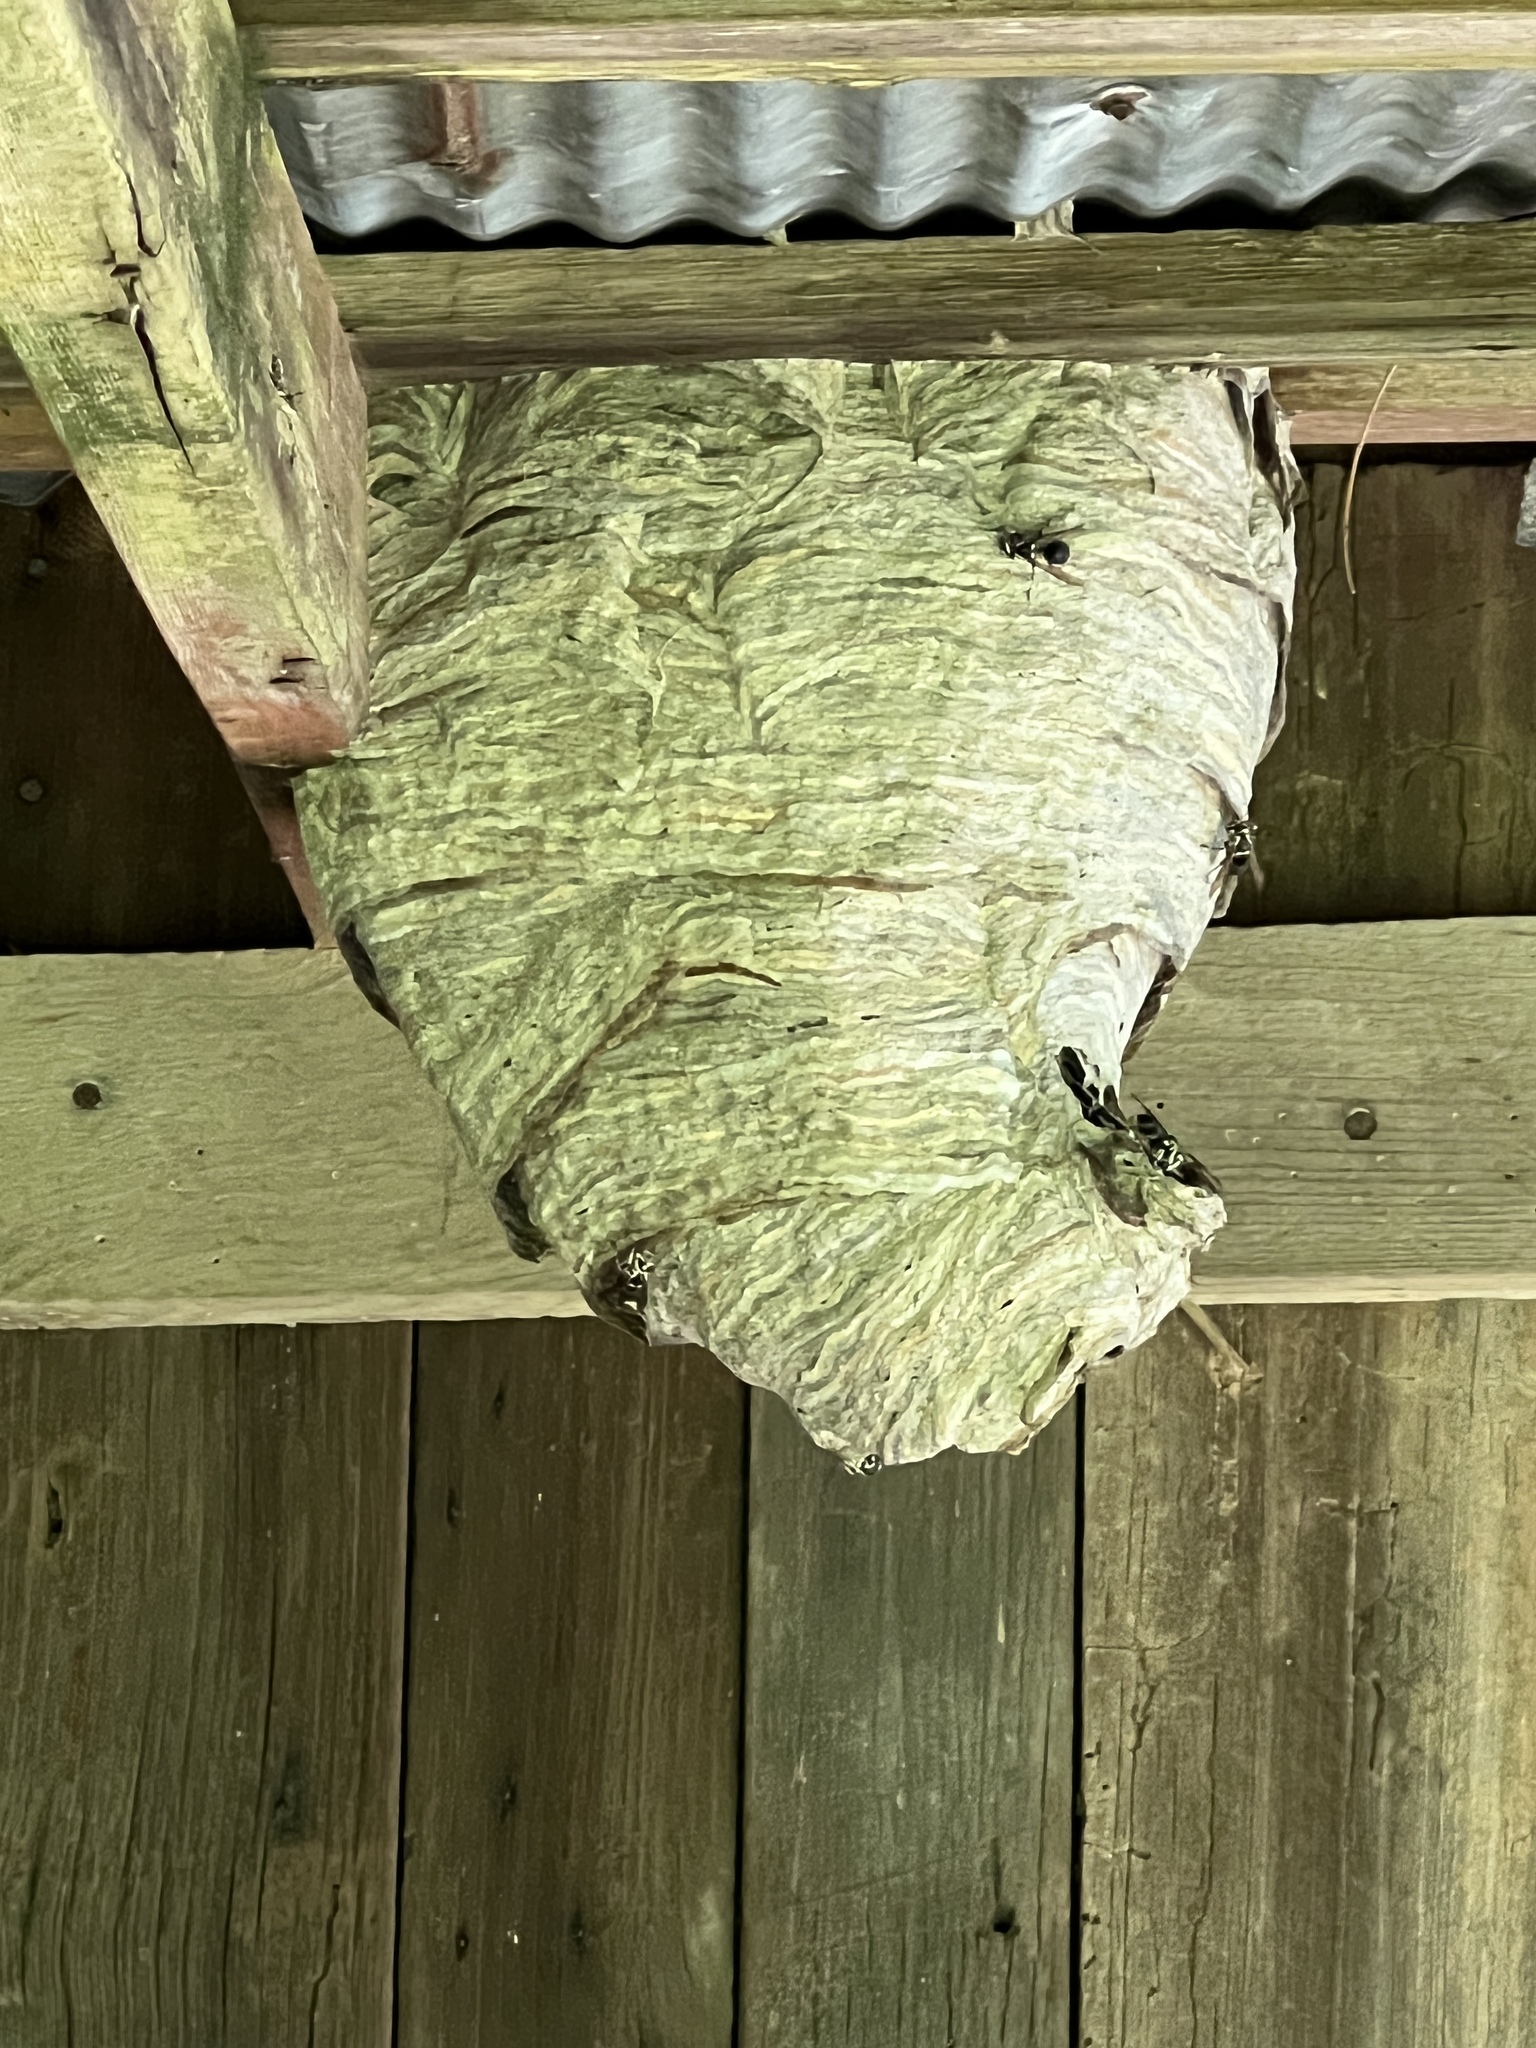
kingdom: Animalia
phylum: Arthropoda
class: Insecta
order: Hymenoptera
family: Vespidae
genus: Dolichovespula
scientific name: Dolichovespula maculata
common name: Bald-faced hornet
